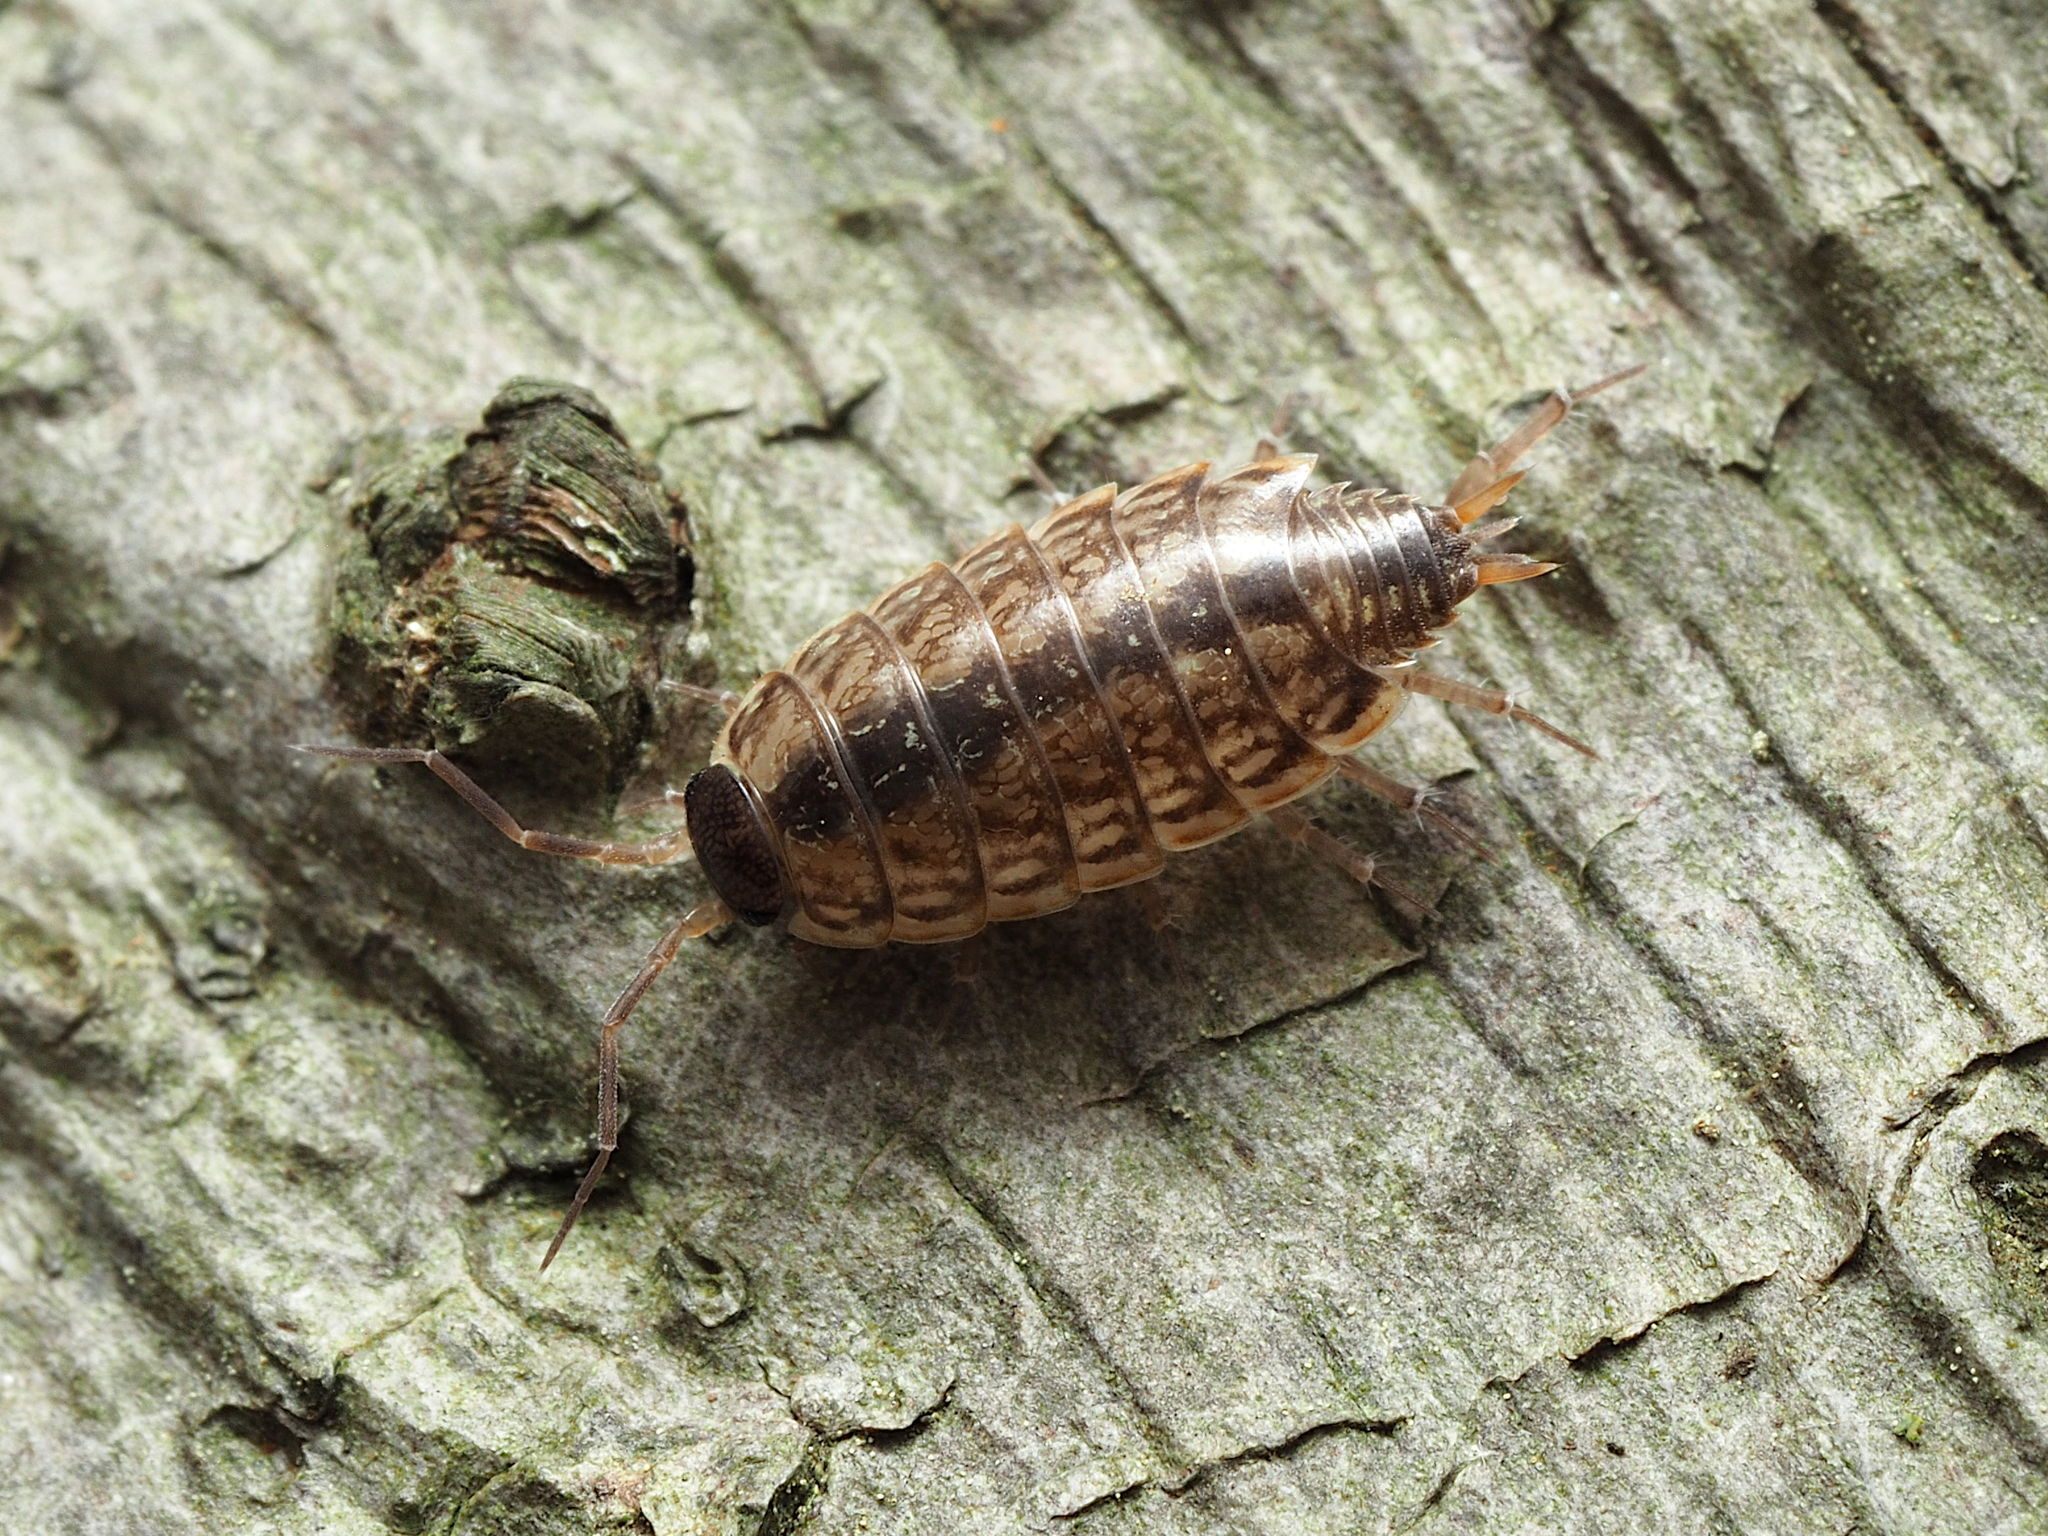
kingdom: Animalia
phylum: Arthropoda
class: Malacostraca
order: Isopoda
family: Philosciidae
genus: Philoscia
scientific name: Philoscia muscorum
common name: Common striped woodlouse
